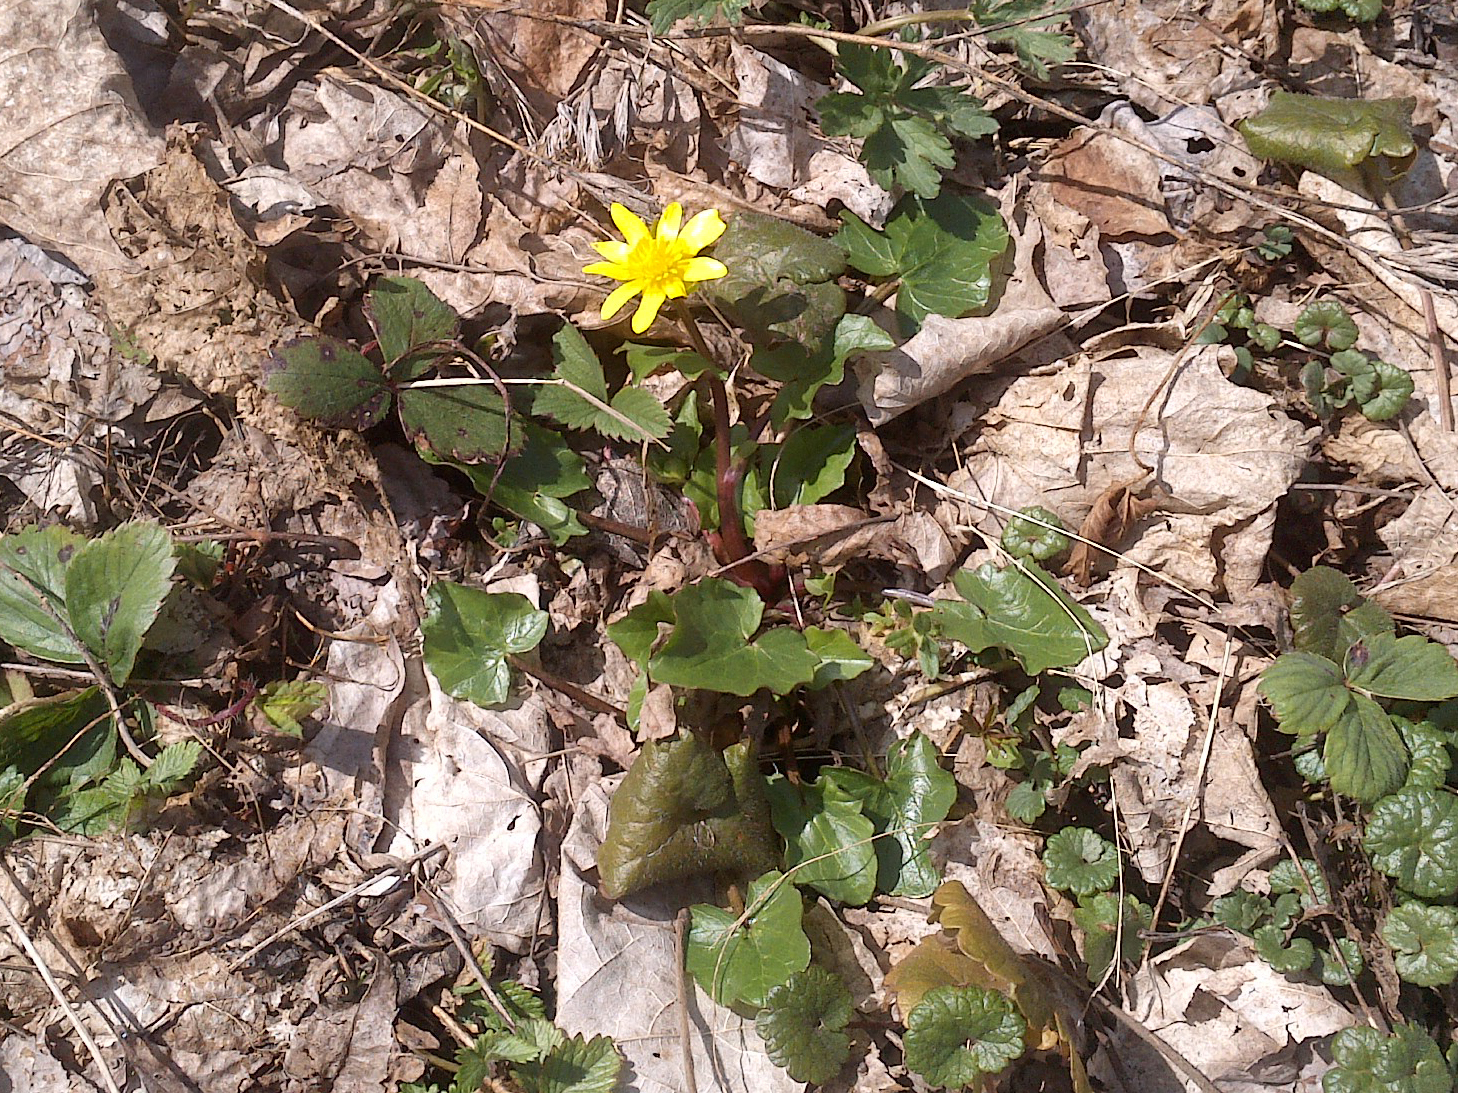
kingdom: Plantae
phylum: Tracheophyta
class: Magnoliopsida
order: Ranunculales
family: Ranunculaceae
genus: Ficaria
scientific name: Ficaria verna
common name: Lesser celandine
